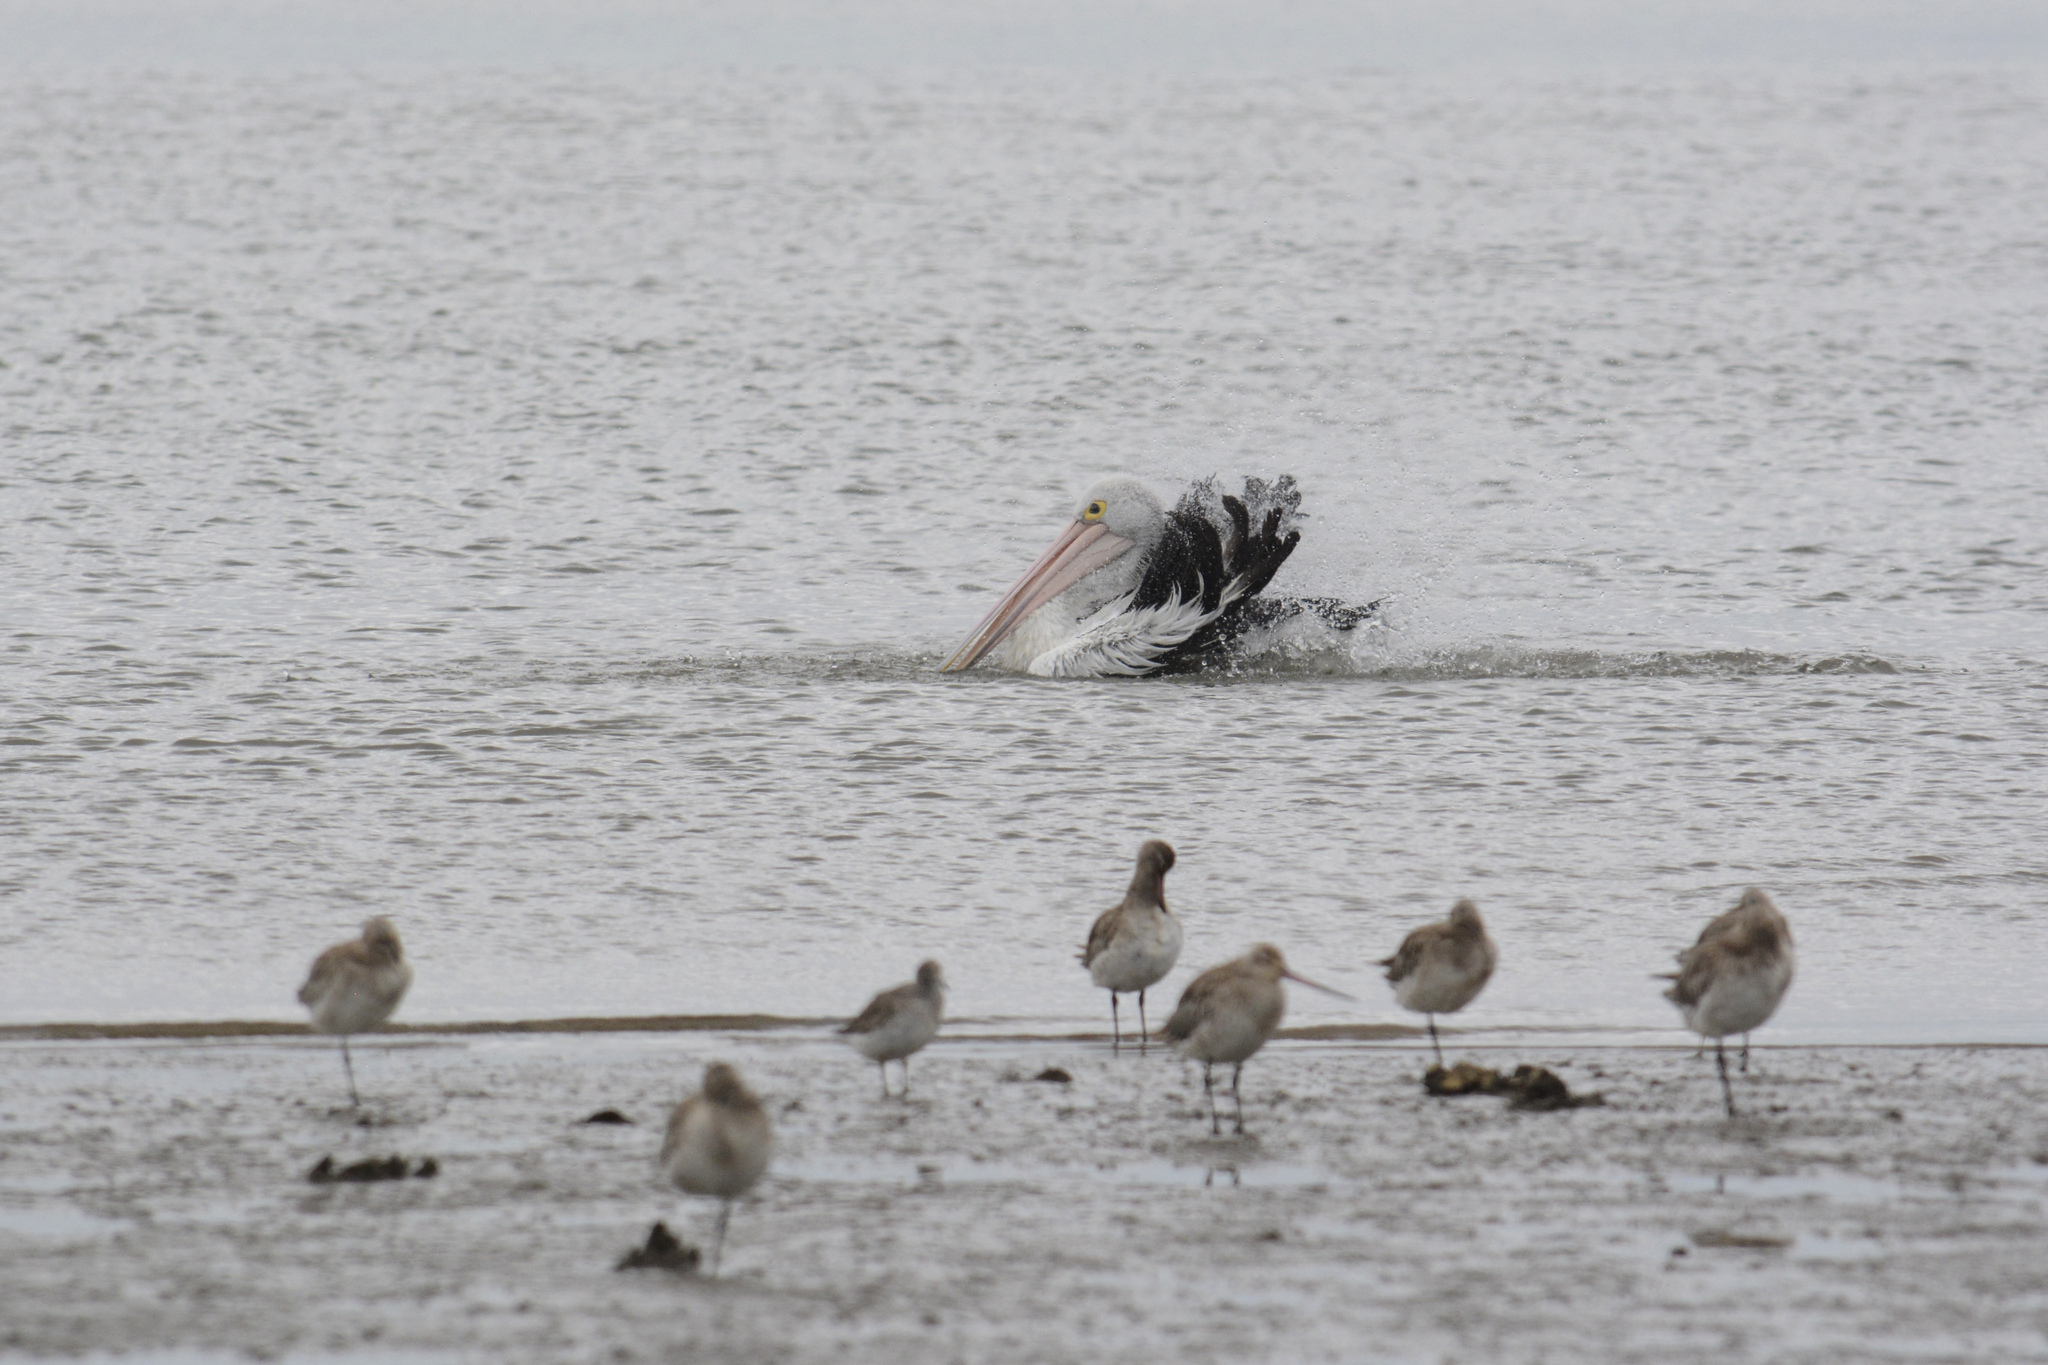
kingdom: Animalia
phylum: Chordata
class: Aves
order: Pelecaniformes
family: Pelecanidae
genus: Pelecanus
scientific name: Pelecanus conspicillatus
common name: Australian pelican
